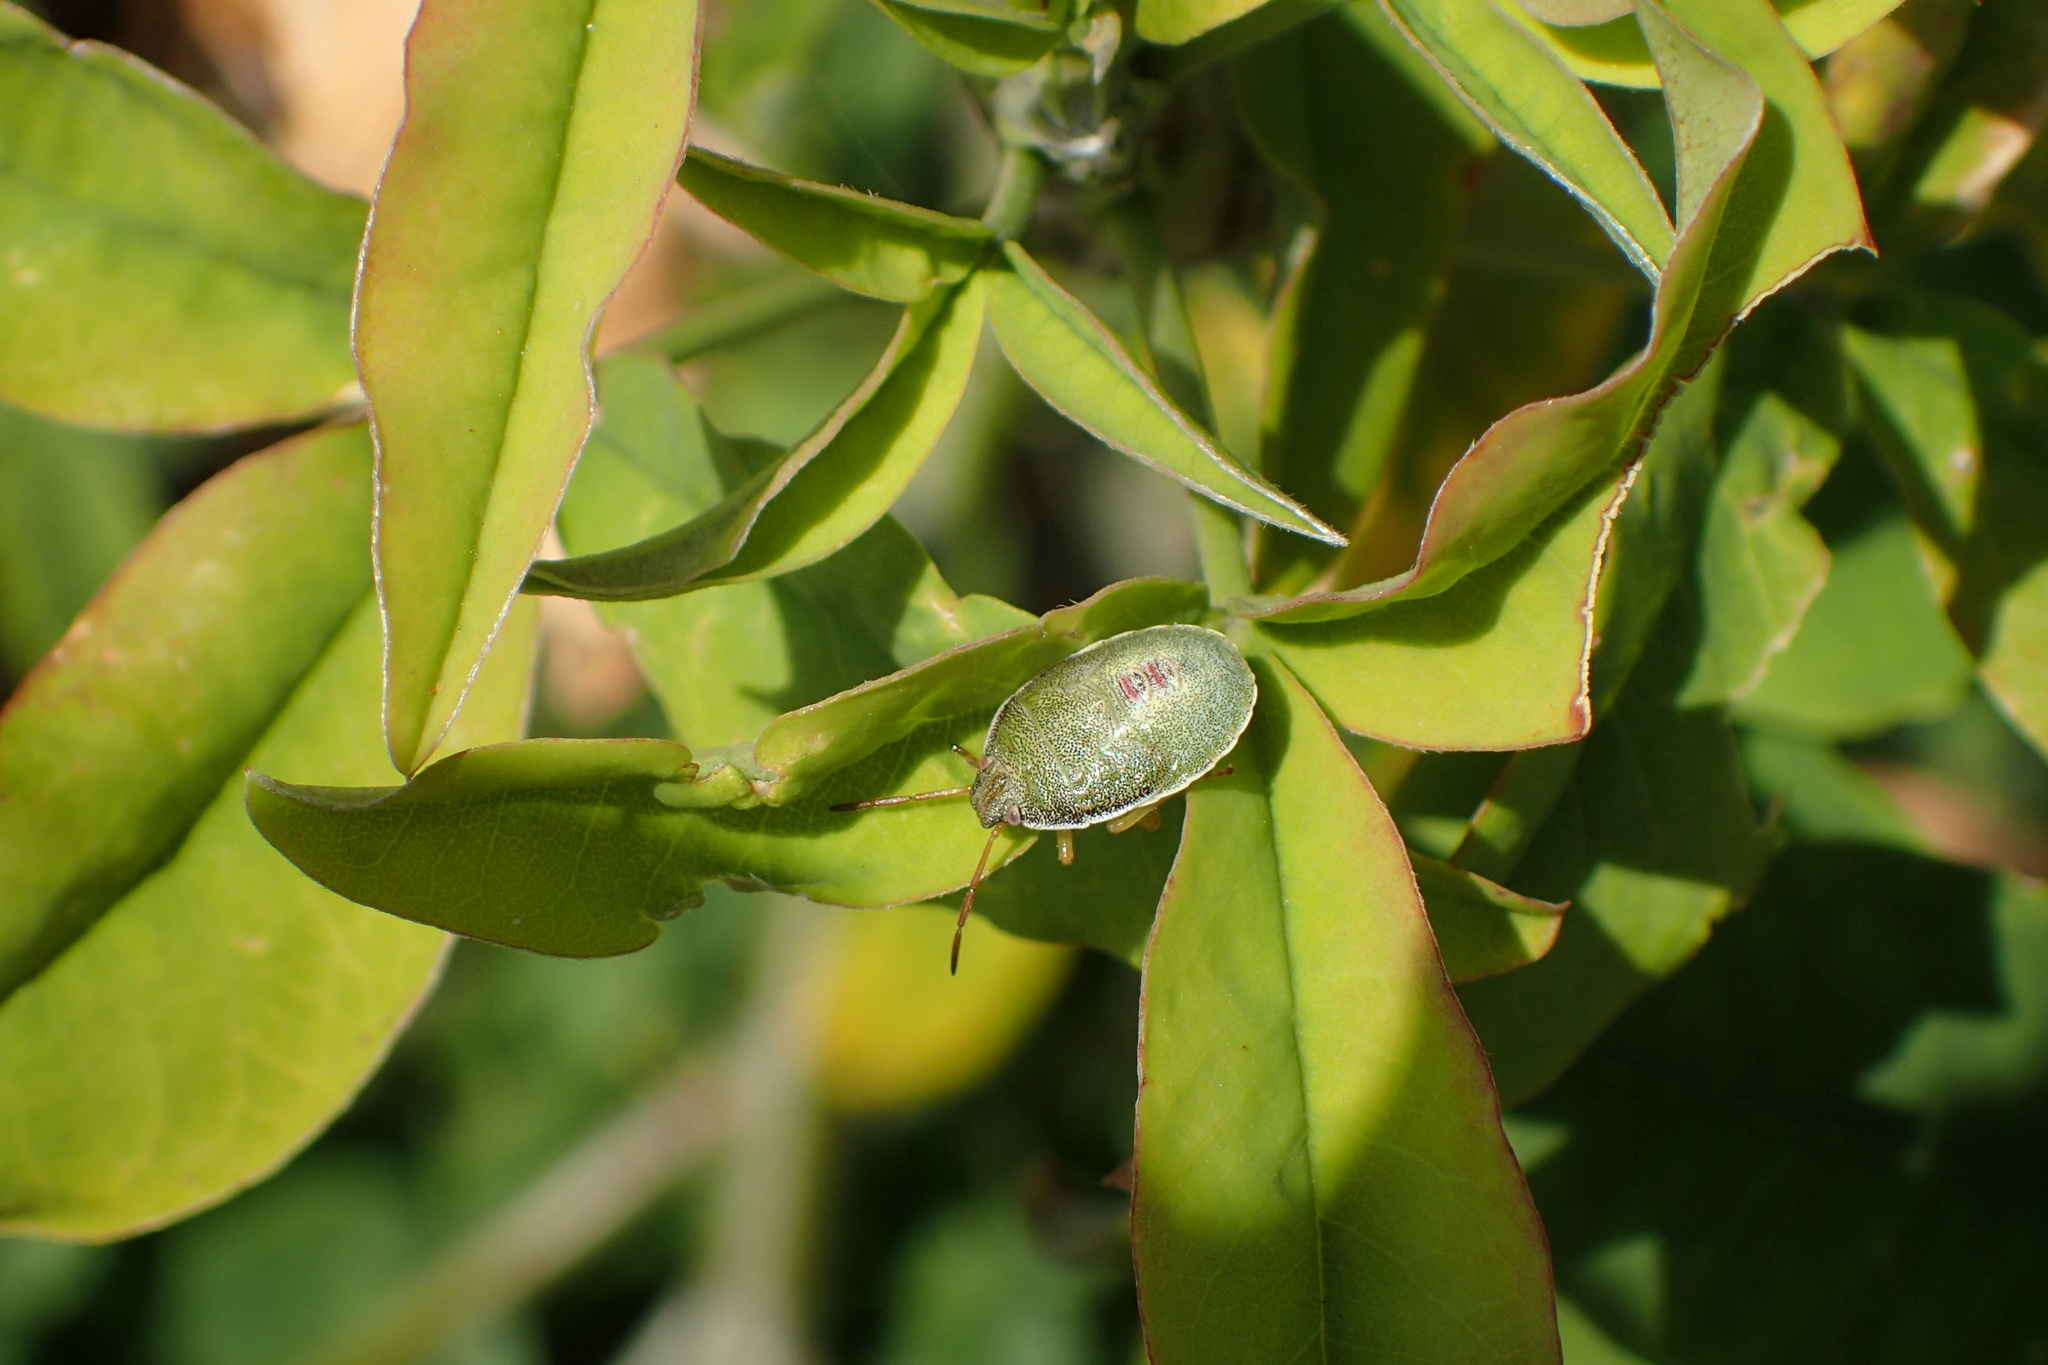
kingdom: Animalia
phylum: Arthropoda
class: Insecta
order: Hemiptera
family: Pentatomidae
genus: Piezodorus
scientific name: Piezodorus lituratus
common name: Stink bug
